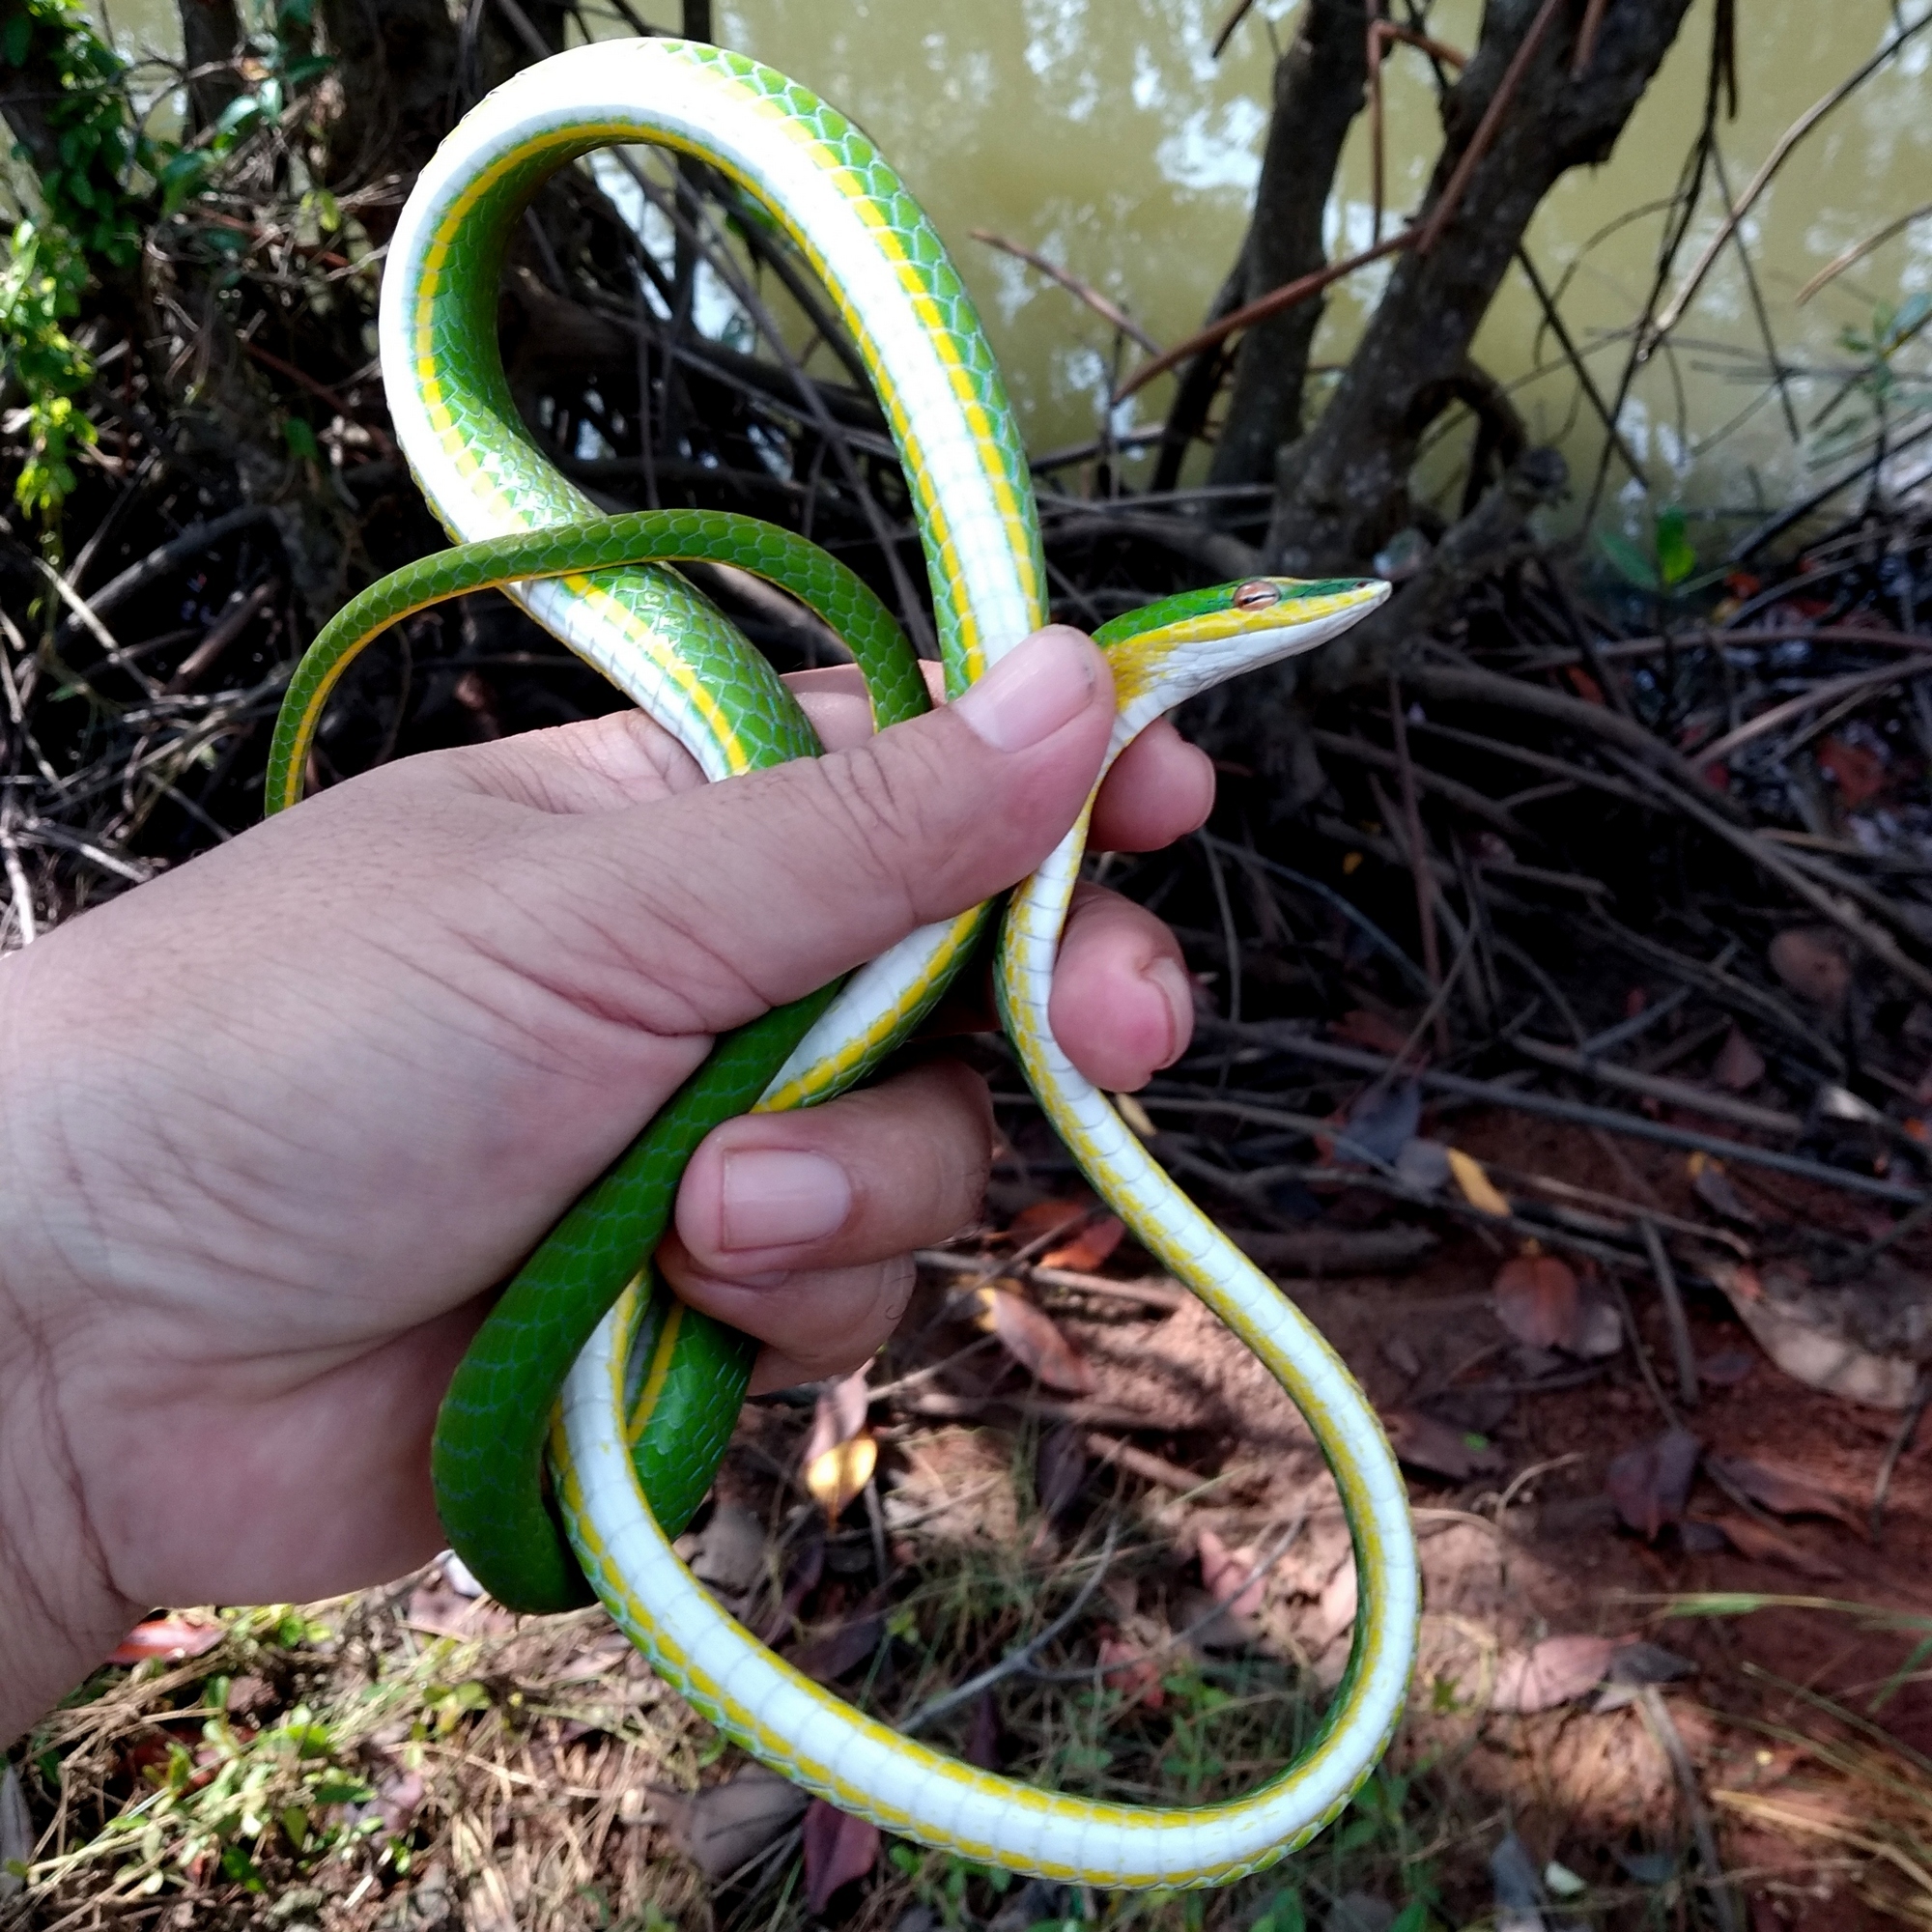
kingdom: Animalia
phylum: Chordata
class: Squamata
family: Colubridae
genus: Ahaetulla
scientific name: Ahaetulla mycterizans
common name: Malayan whip snake
